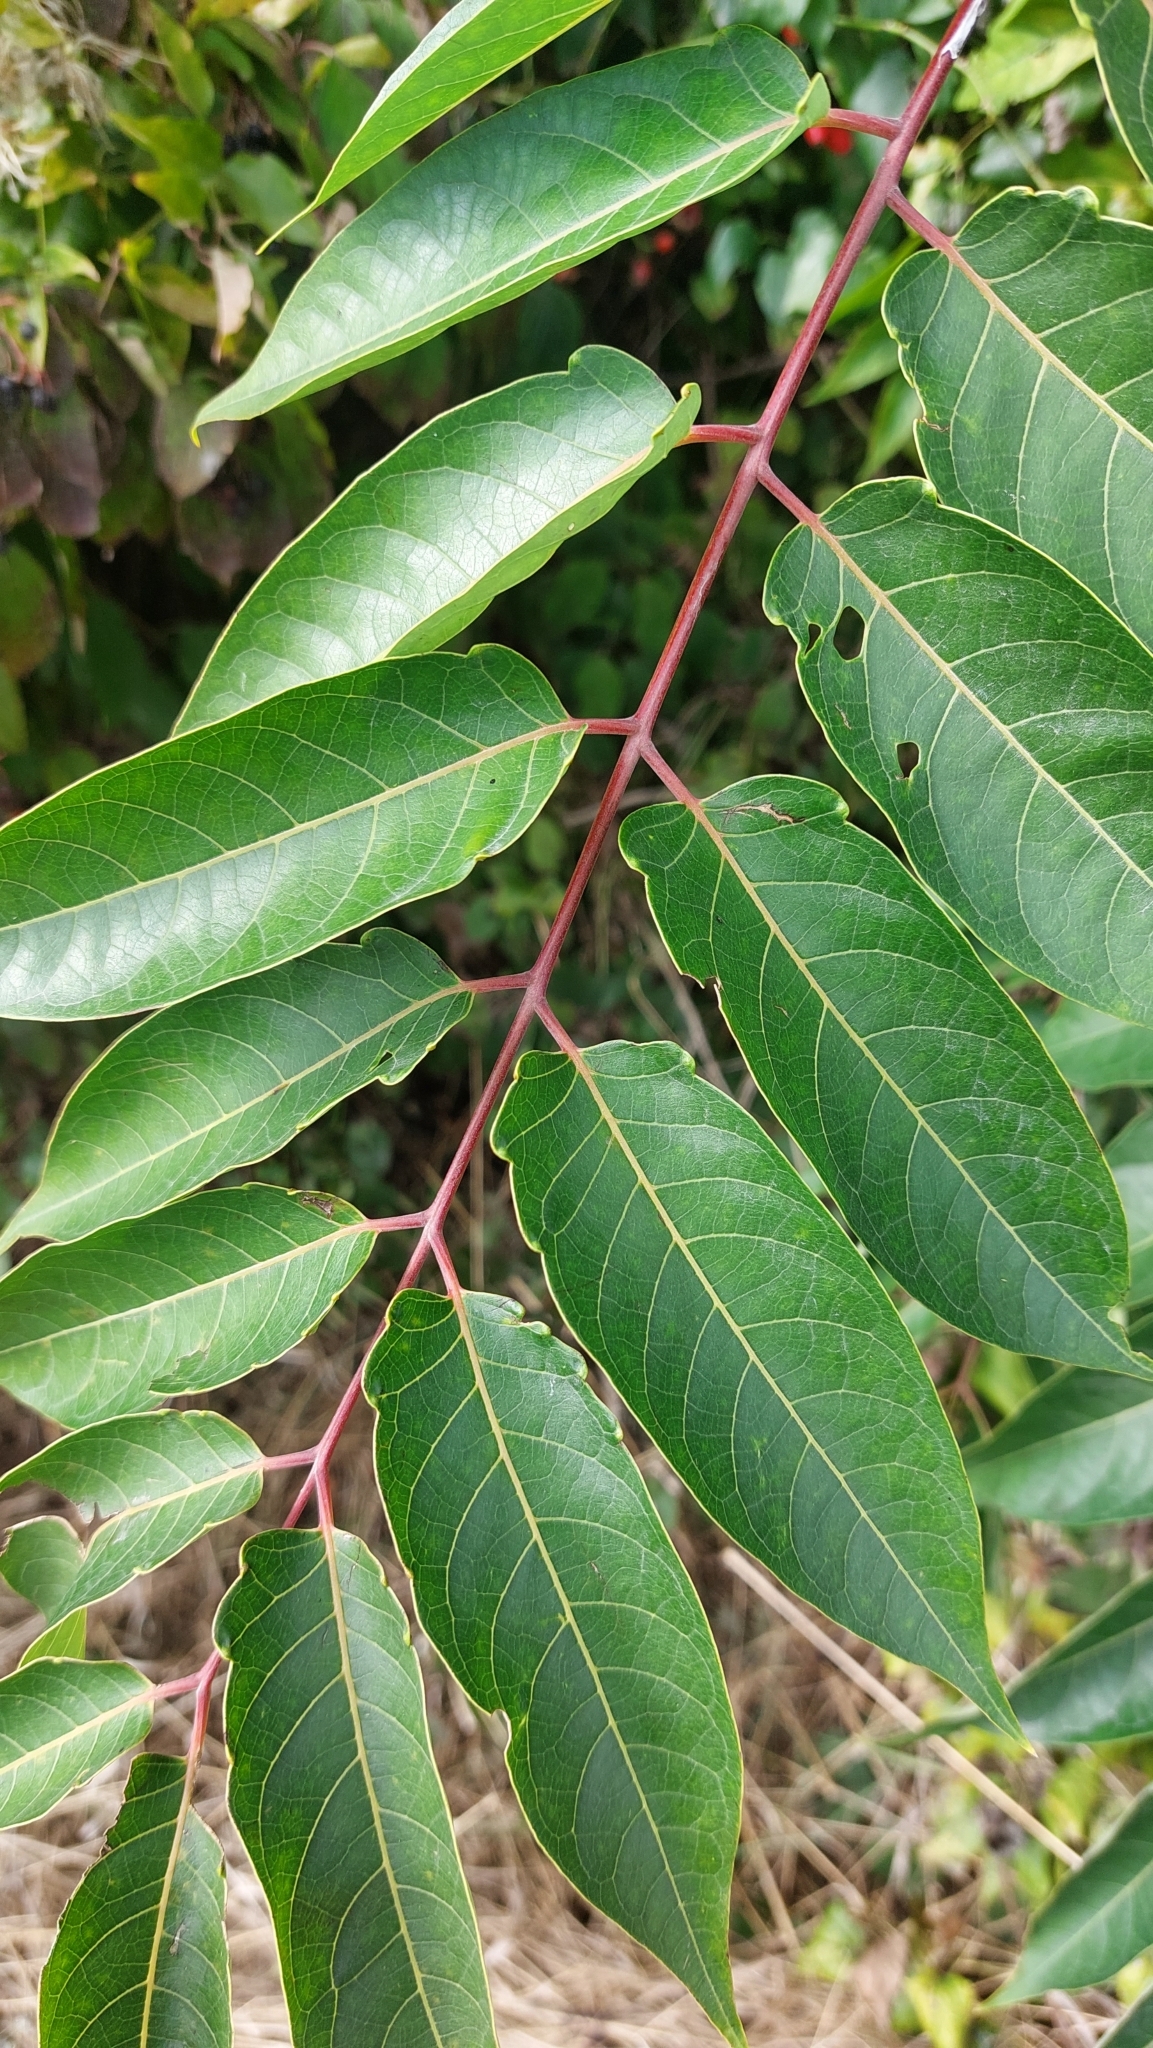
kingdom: Plantae
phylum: Tracheophyta
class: Magnoliopsida
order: Sapindales
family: Simaroubaceae
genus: Ailanthus
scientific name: Ailanthus altissima
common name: Tree-of-heaven
